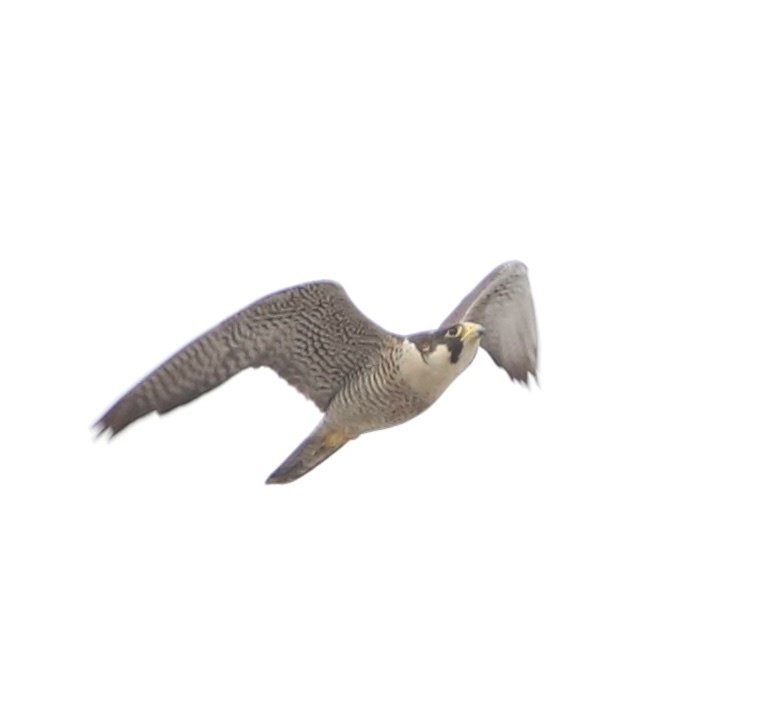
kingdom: Animalia
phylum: Chordata
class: Aves
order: Falconiformes
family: Falconidae
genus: Falco
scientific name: Falco peregrinus
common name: Peregrine falcon
